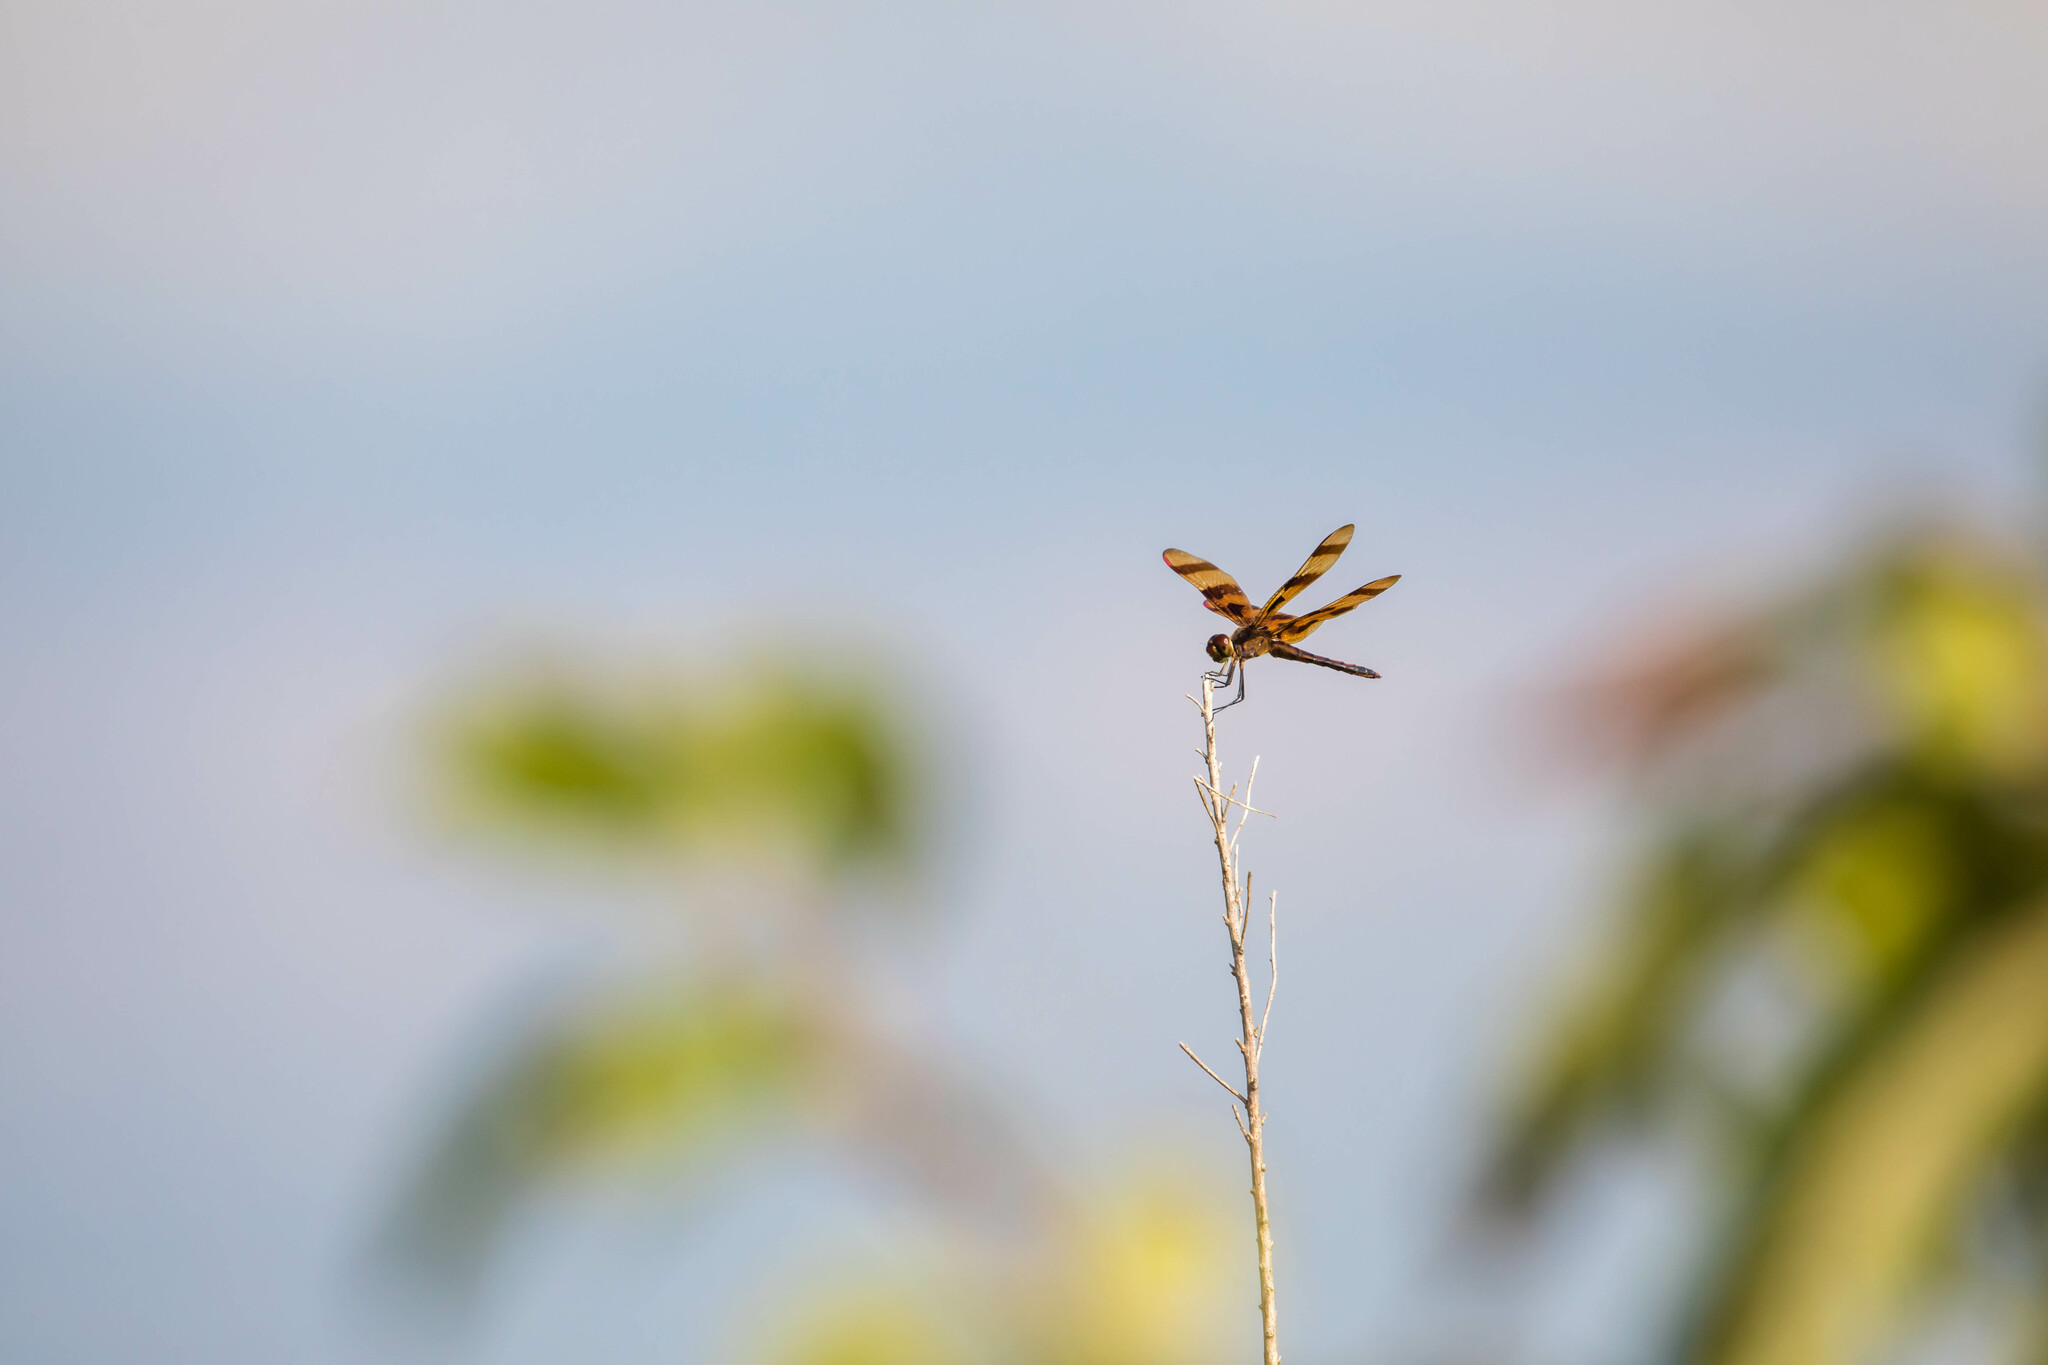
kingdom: Animalia
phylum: Arthropoda
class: Insecta
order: Odonata
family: Libellulidae
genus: Celithemis
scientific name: Celithemis eponina
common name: Halloween pennant
